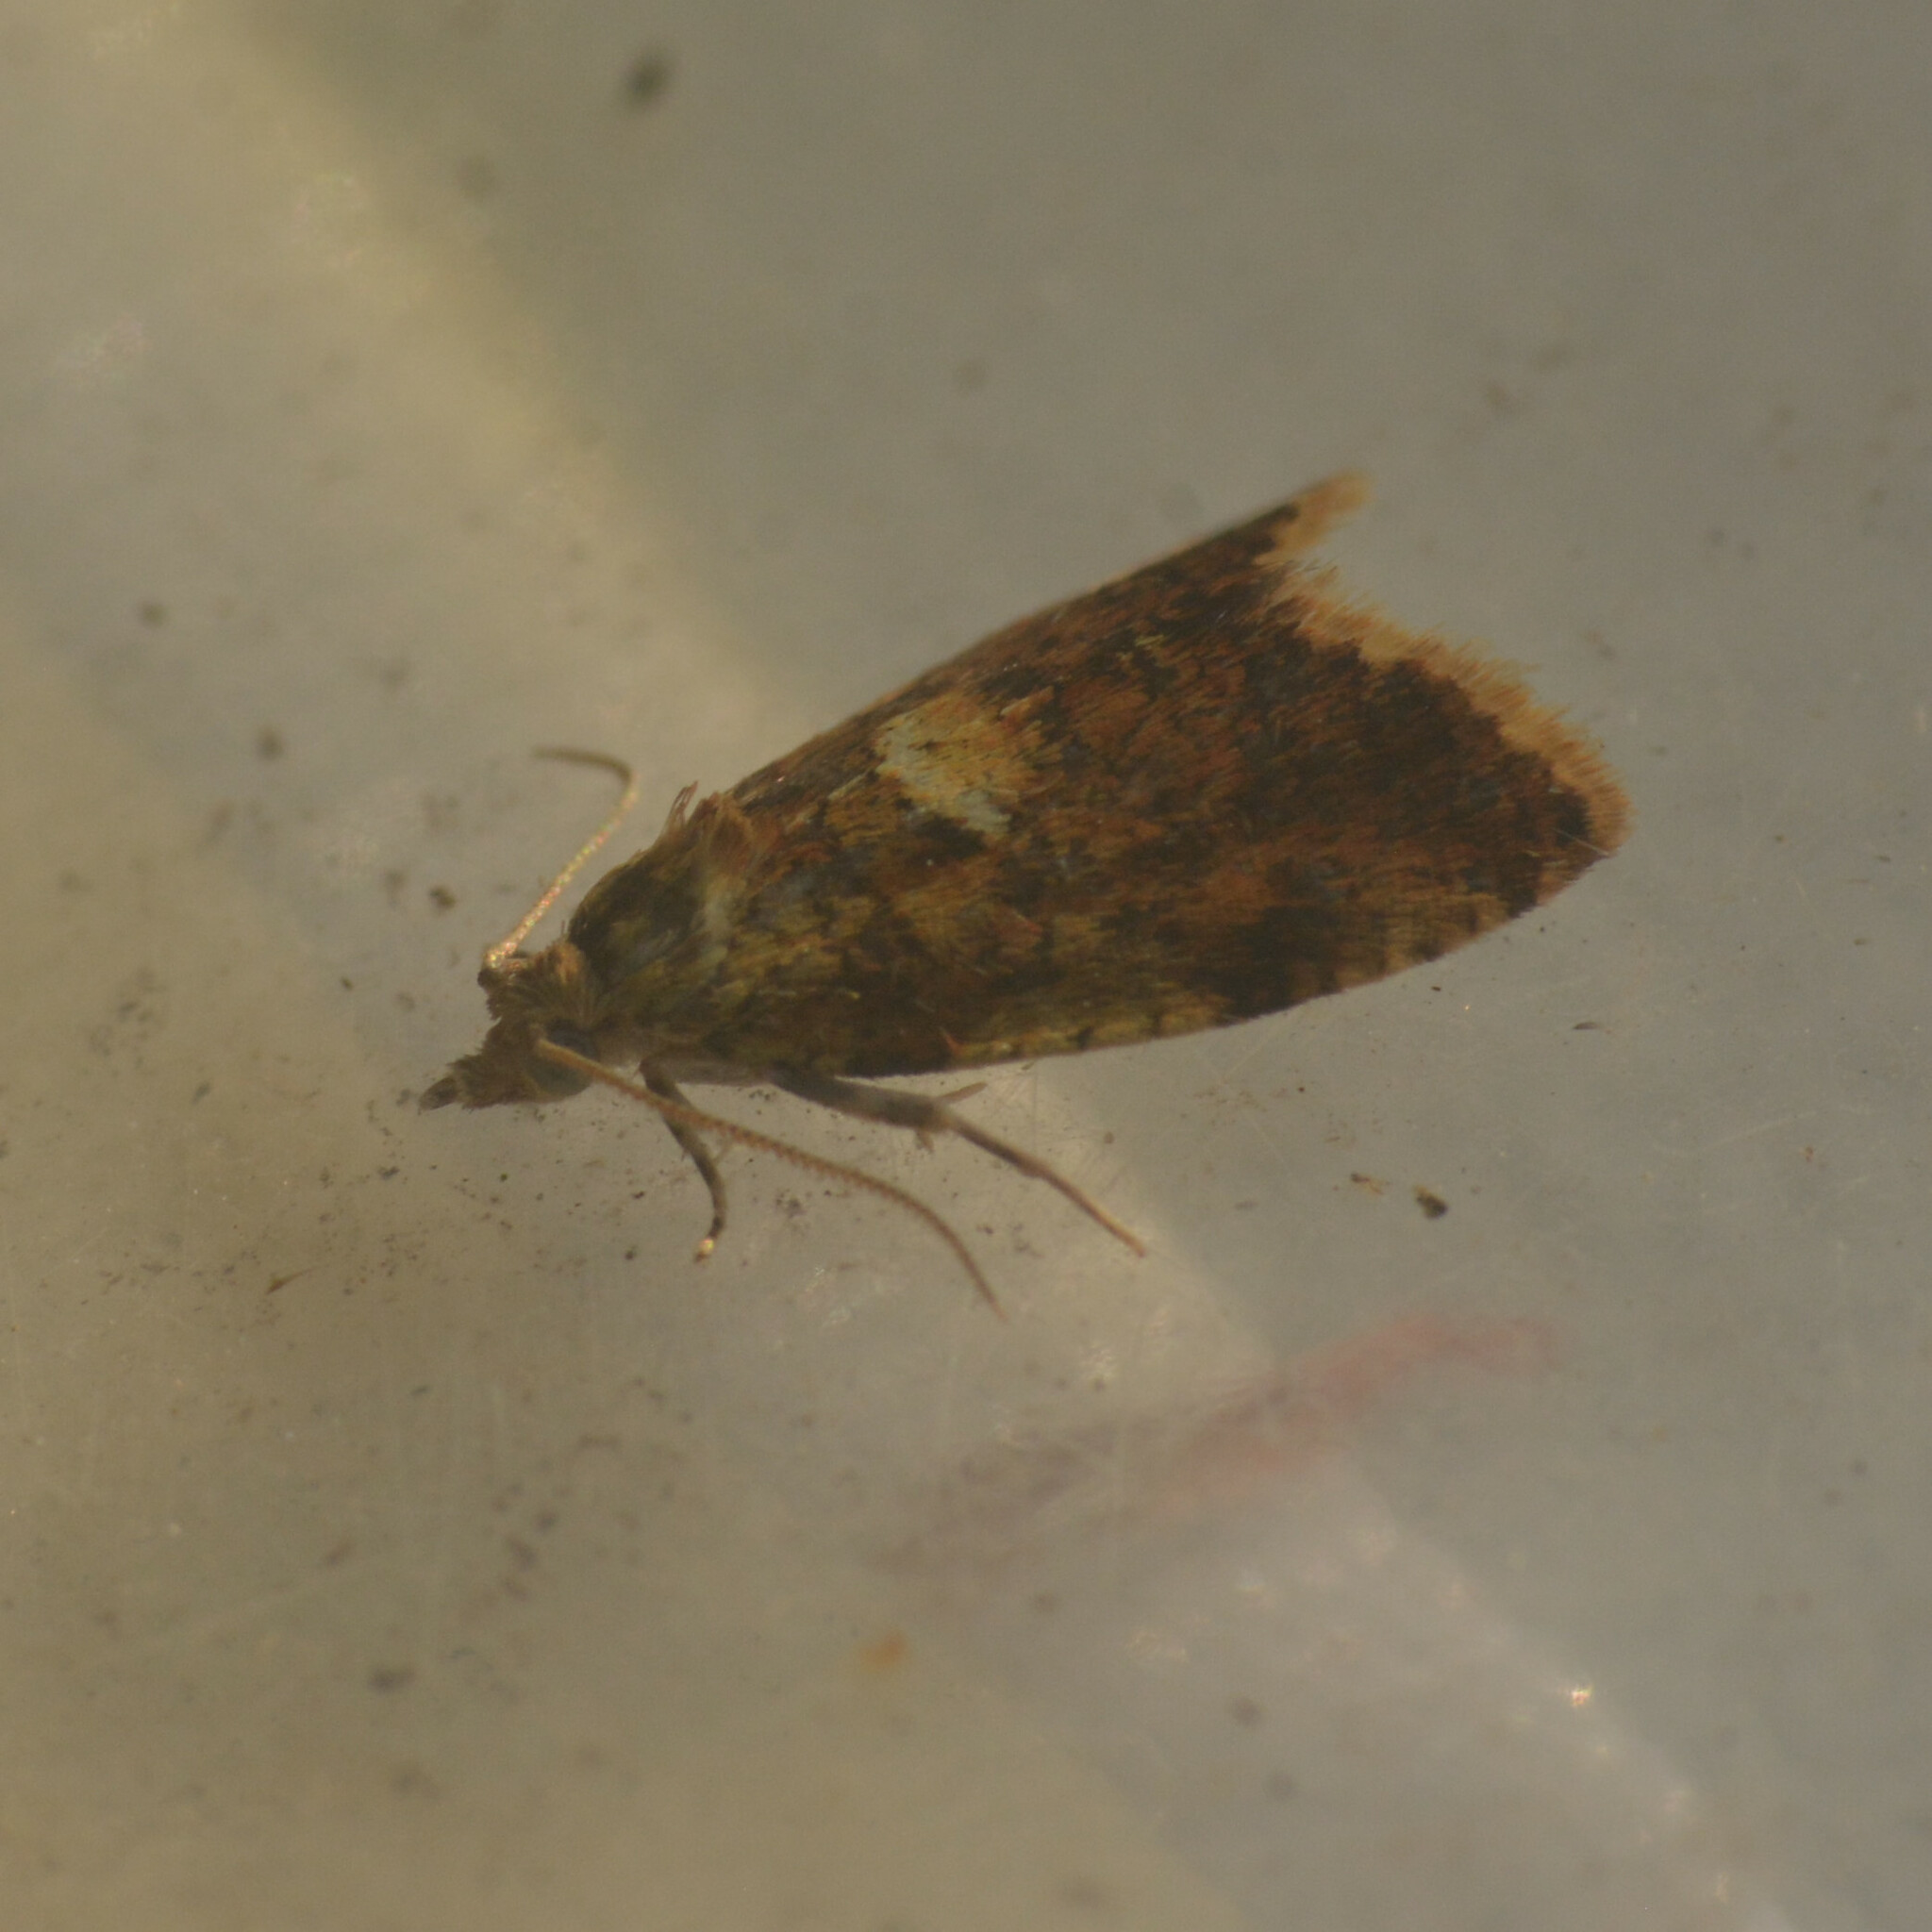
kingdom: Animalia
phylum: Arthropoda
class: Insecta
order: Lepidoptera
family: Tortricidae
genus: Pseudargyrotoza
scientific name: Pseudargyrotoza conwagana
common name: Yellow-spot twist
